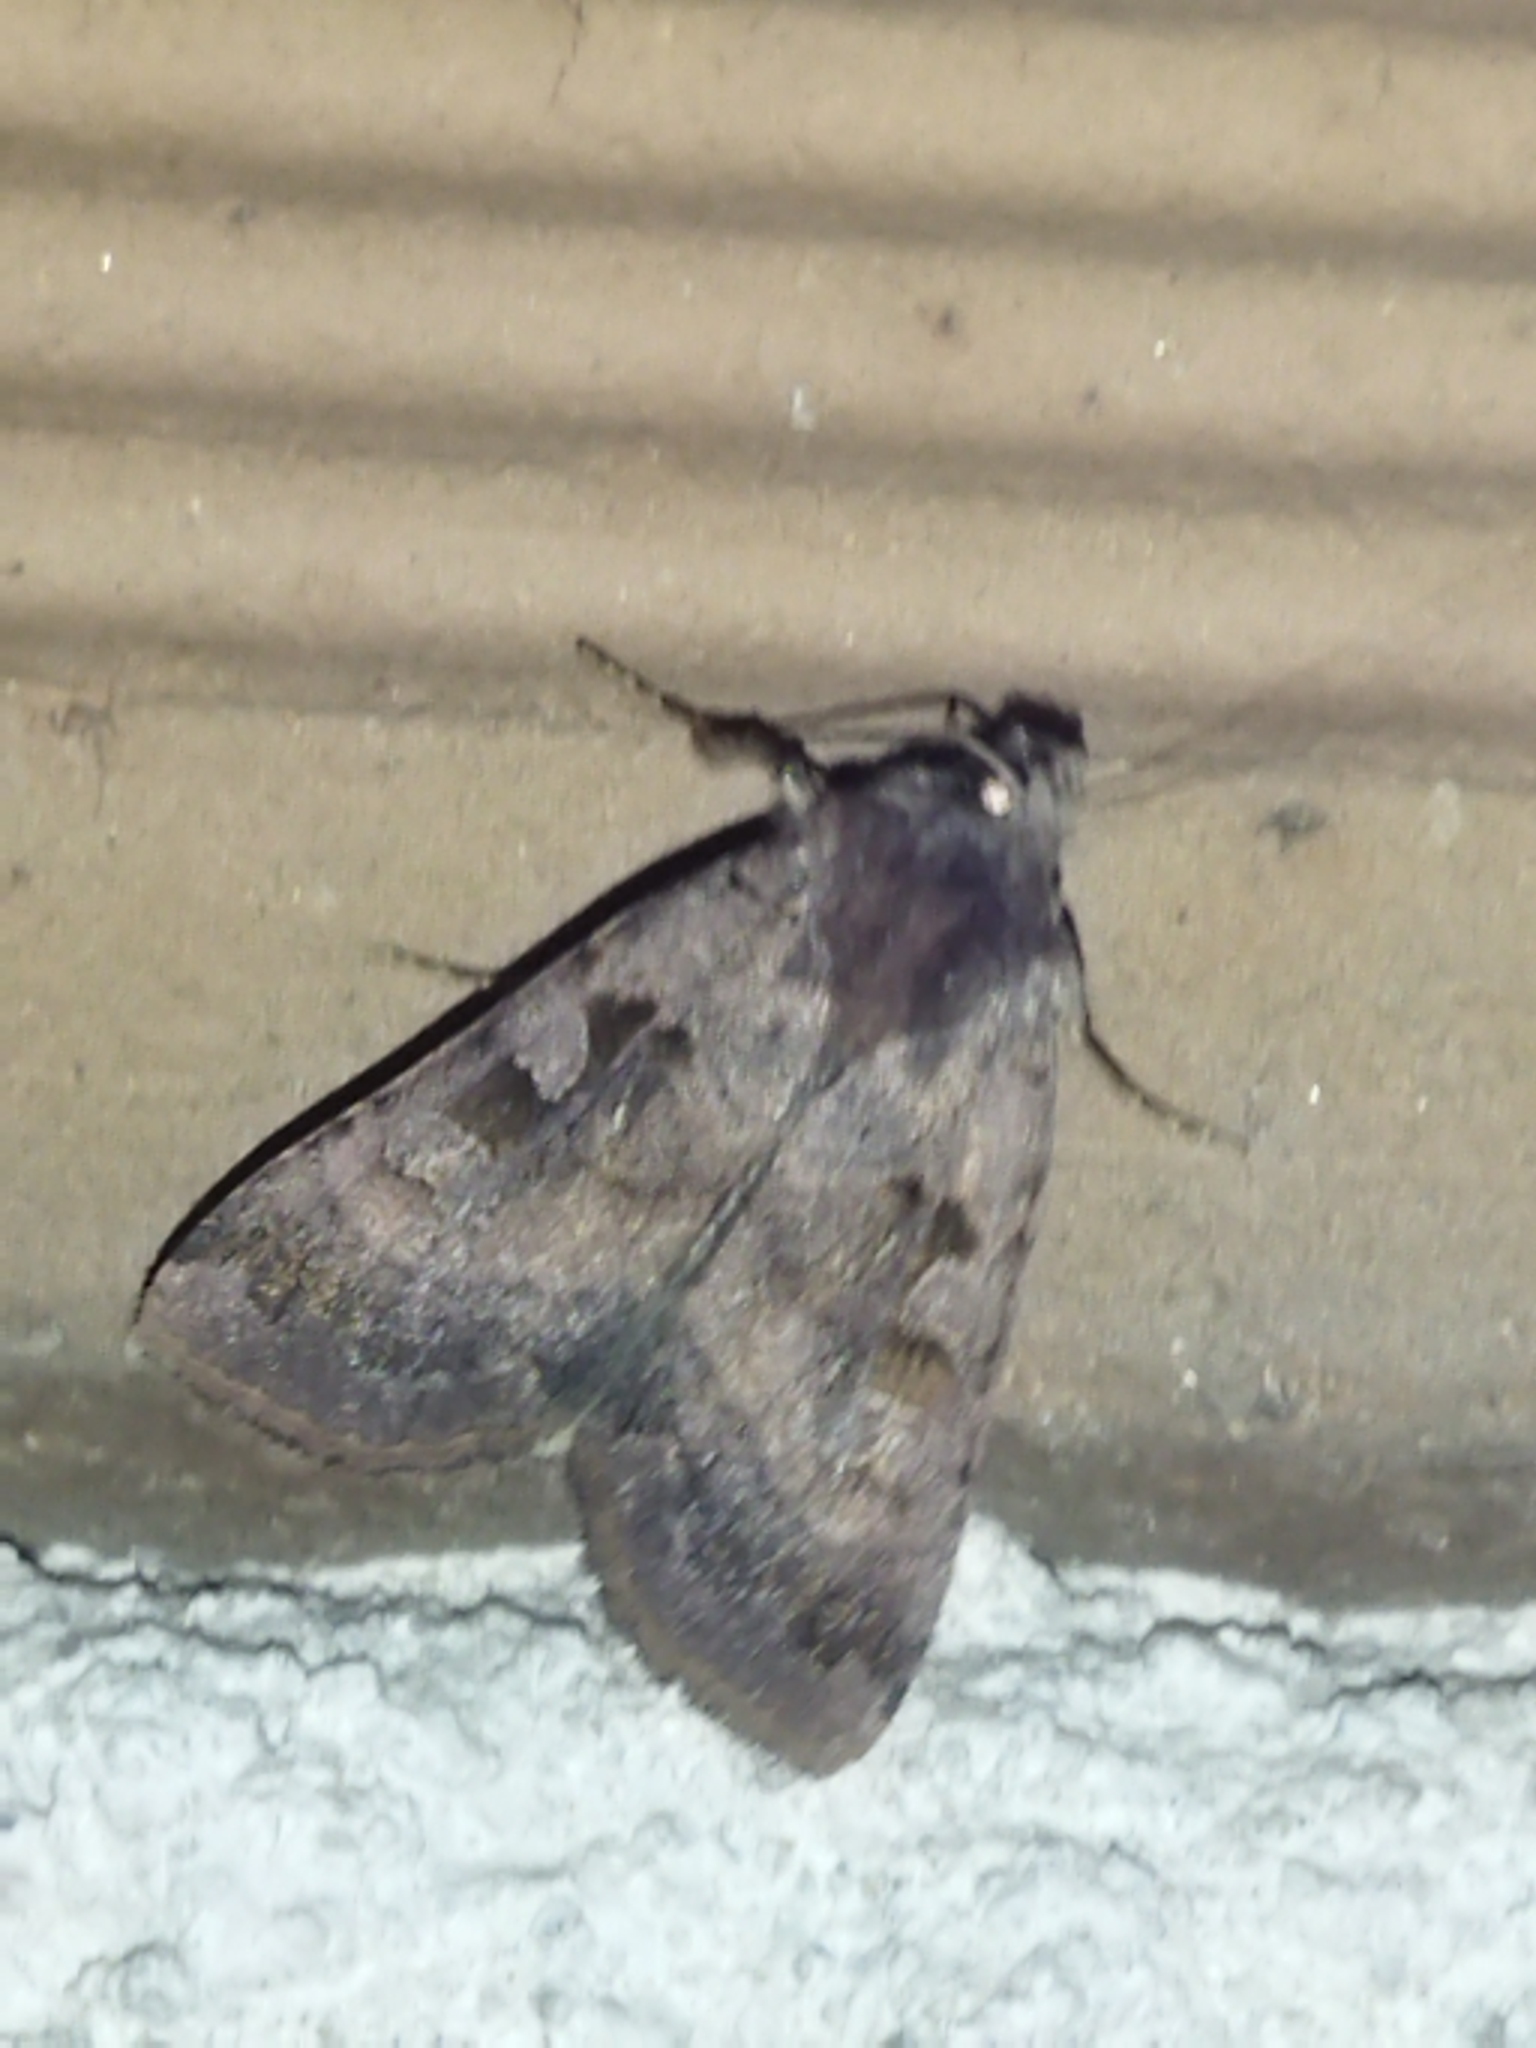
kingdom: Animalia
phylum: Arthropoda
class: Insecta
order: Lepidoptera
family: Noctuidae
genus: Xestia
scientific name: Xestia stigmatica
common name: Square-spotted clay
